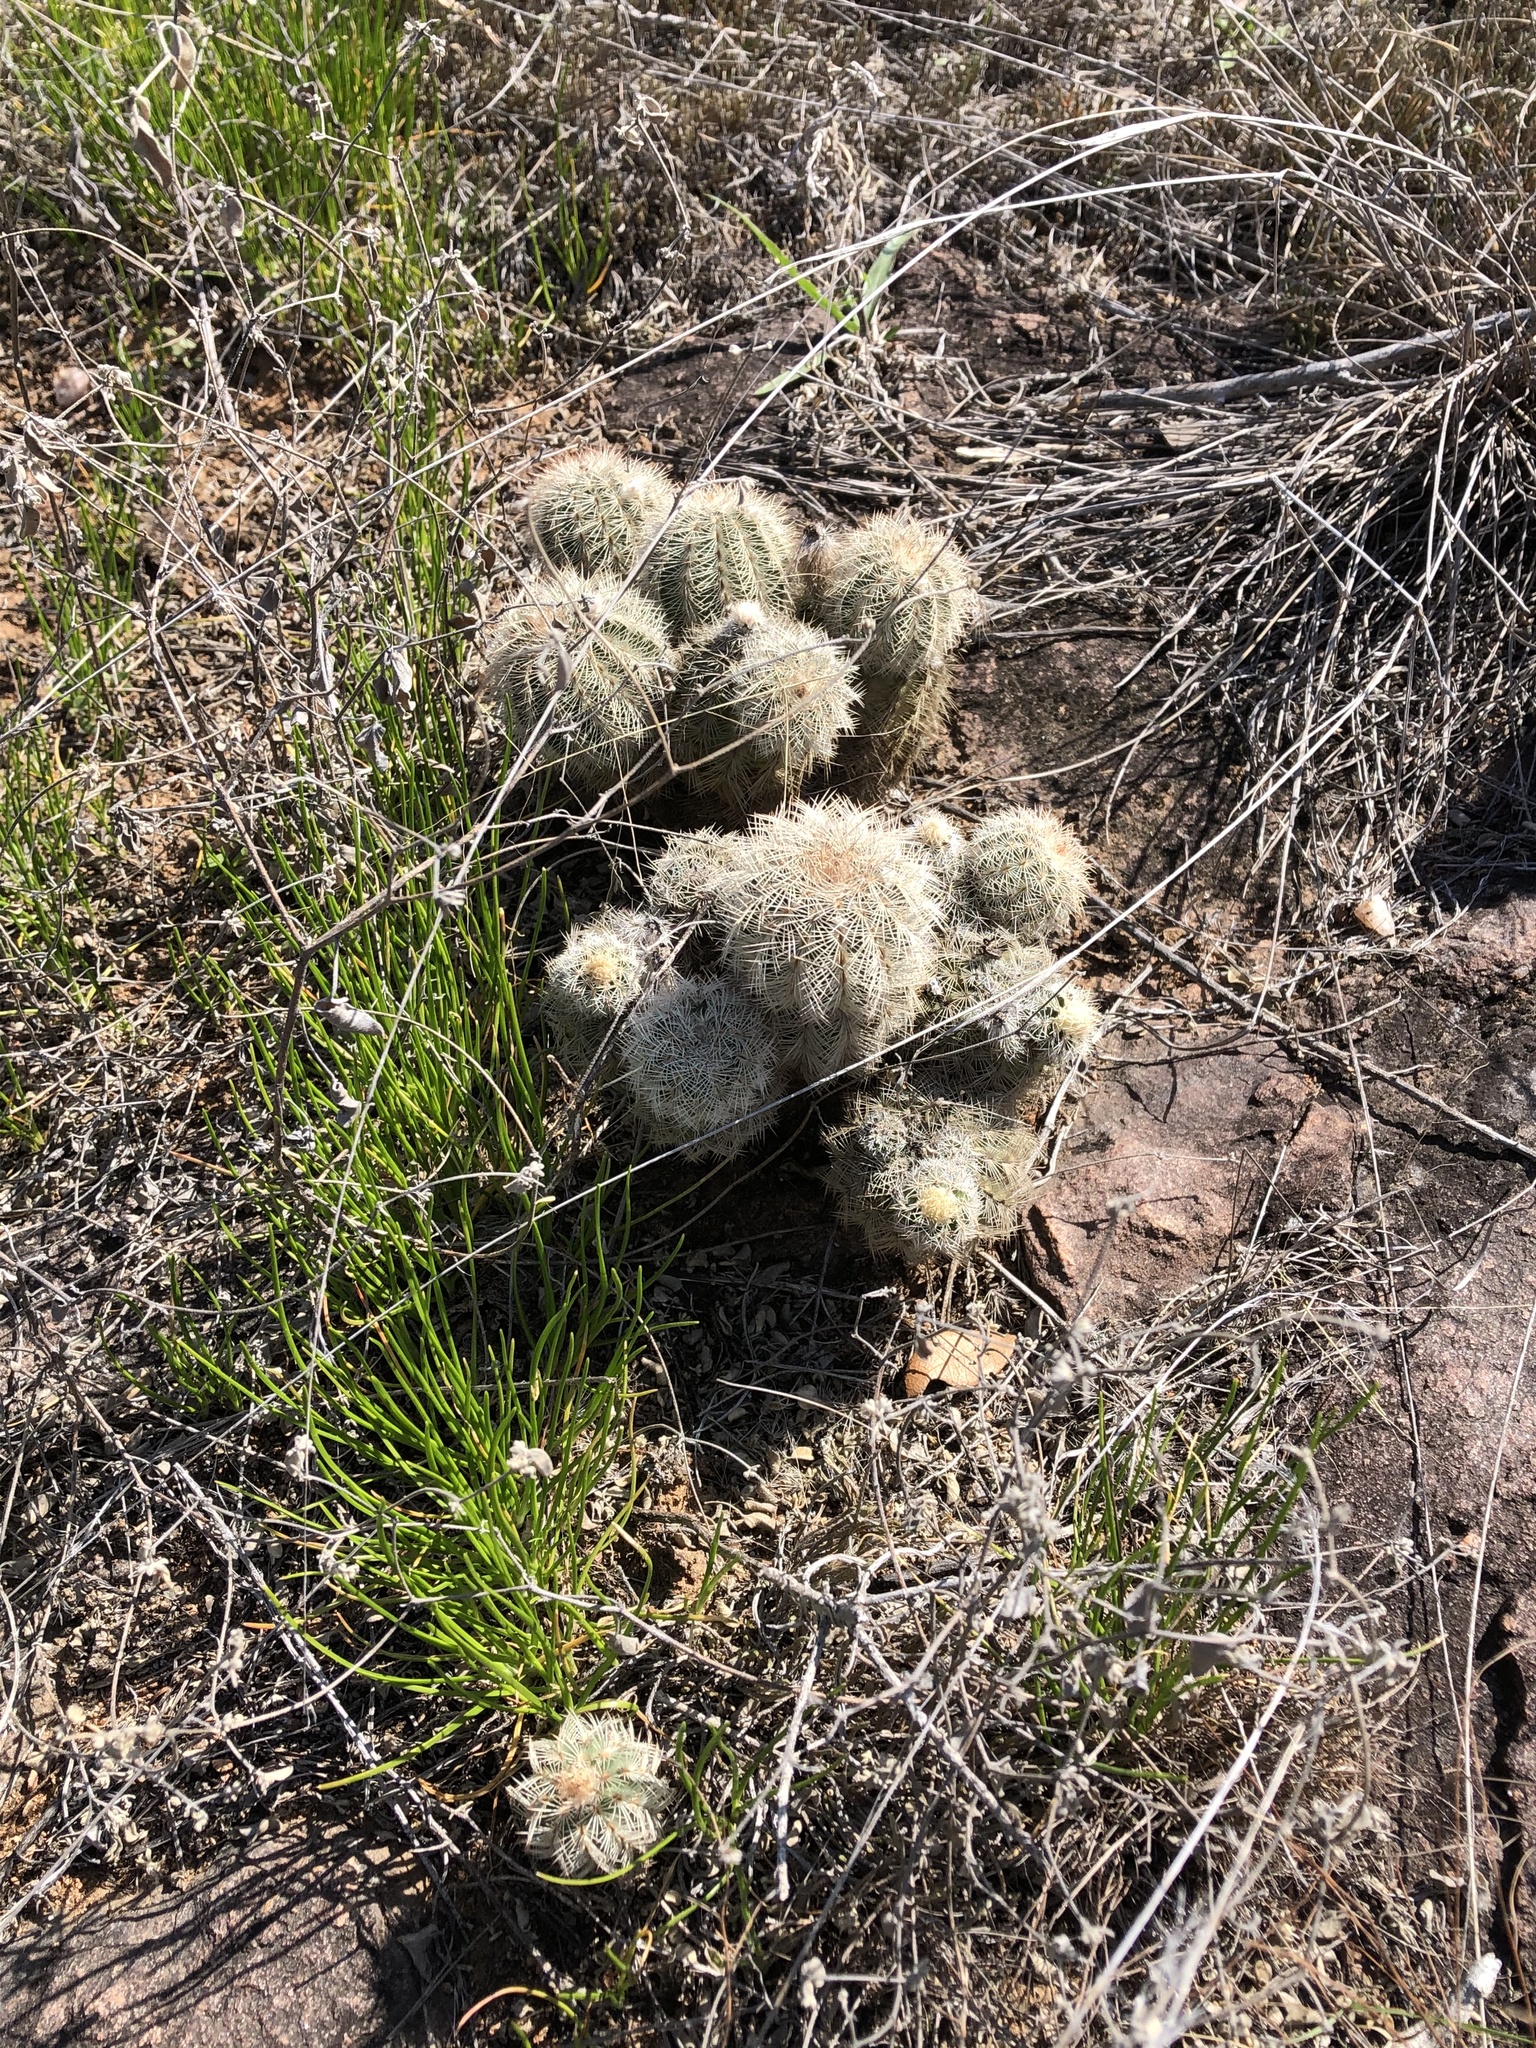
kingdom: Plantae
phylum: Tracheophyta
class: Magnoliopsida
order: Caryophyllales
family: Cactaceae
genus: Echinocereus
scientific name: Echinocereus reichenbachii
